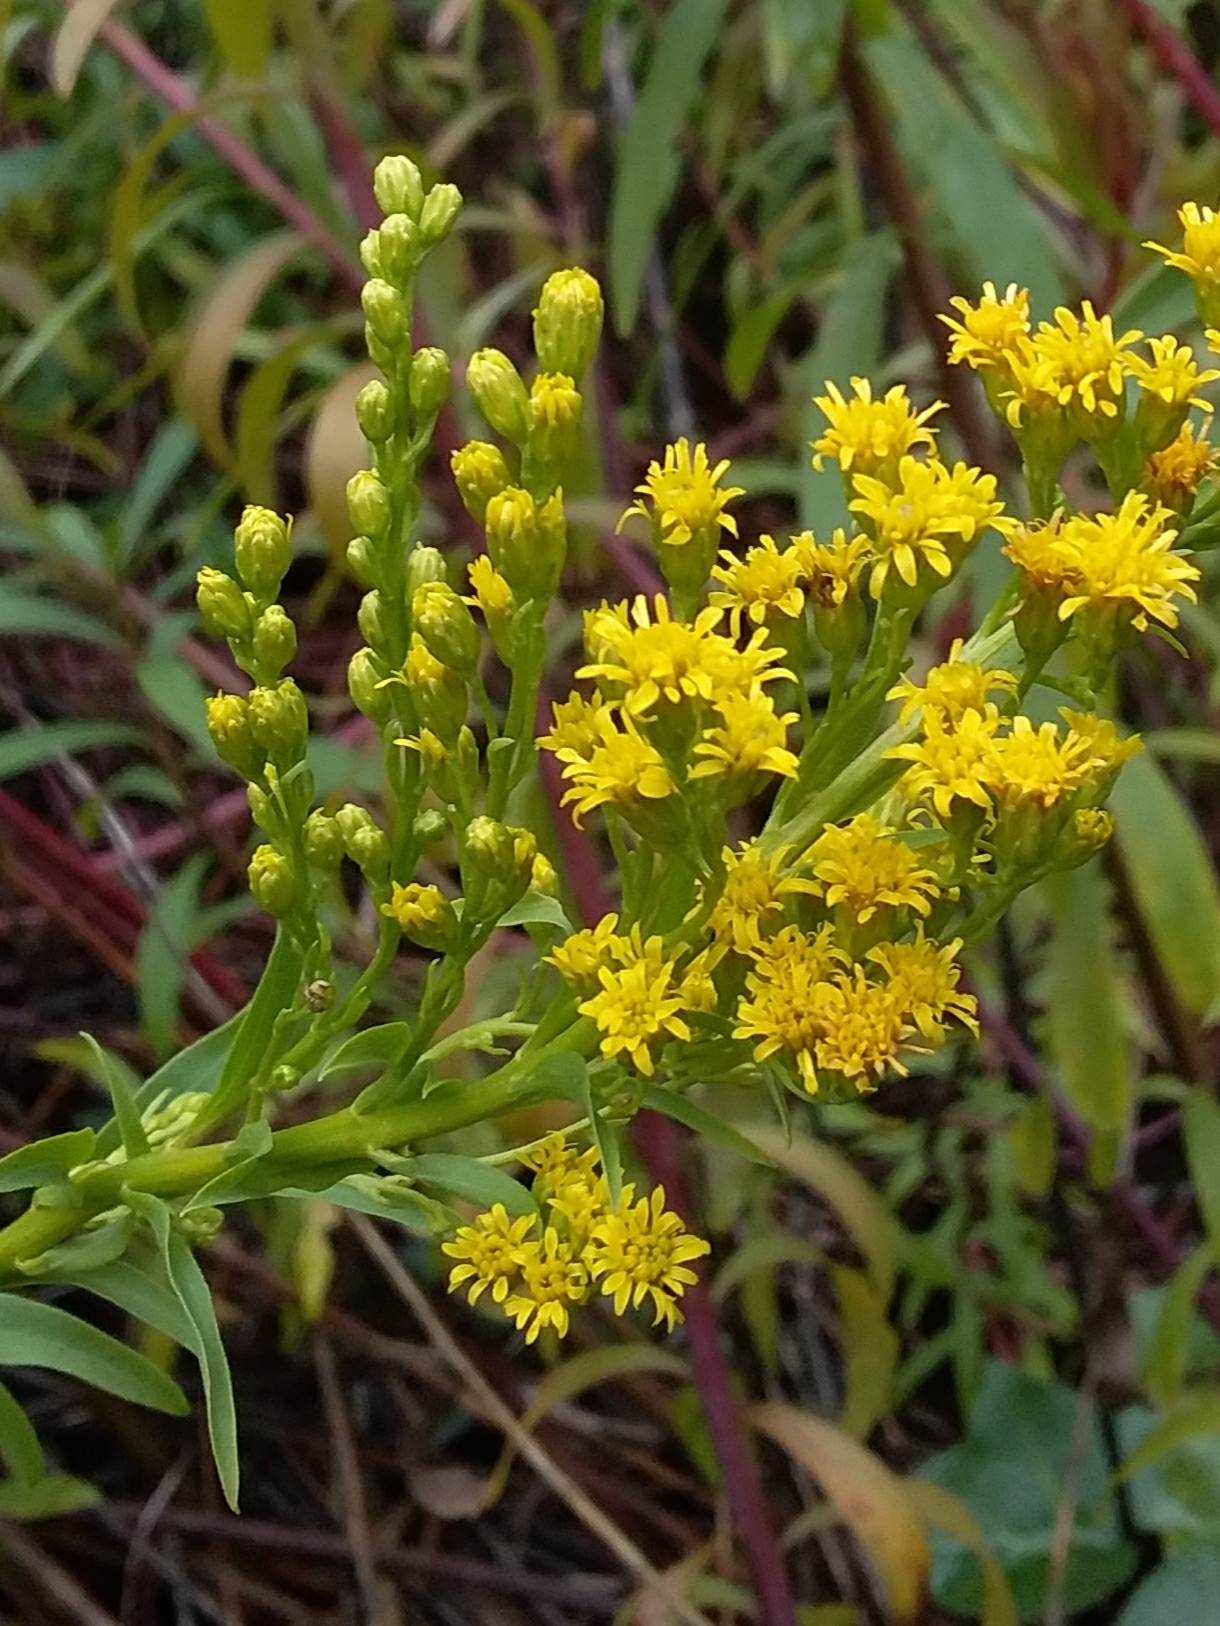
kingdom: Plantae
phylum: Tracheophyta
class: Magnoliopsida
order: Asterales
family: Asteraceae
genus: Solidago
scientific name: Solidago canadensis
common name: Canada goldenrod
